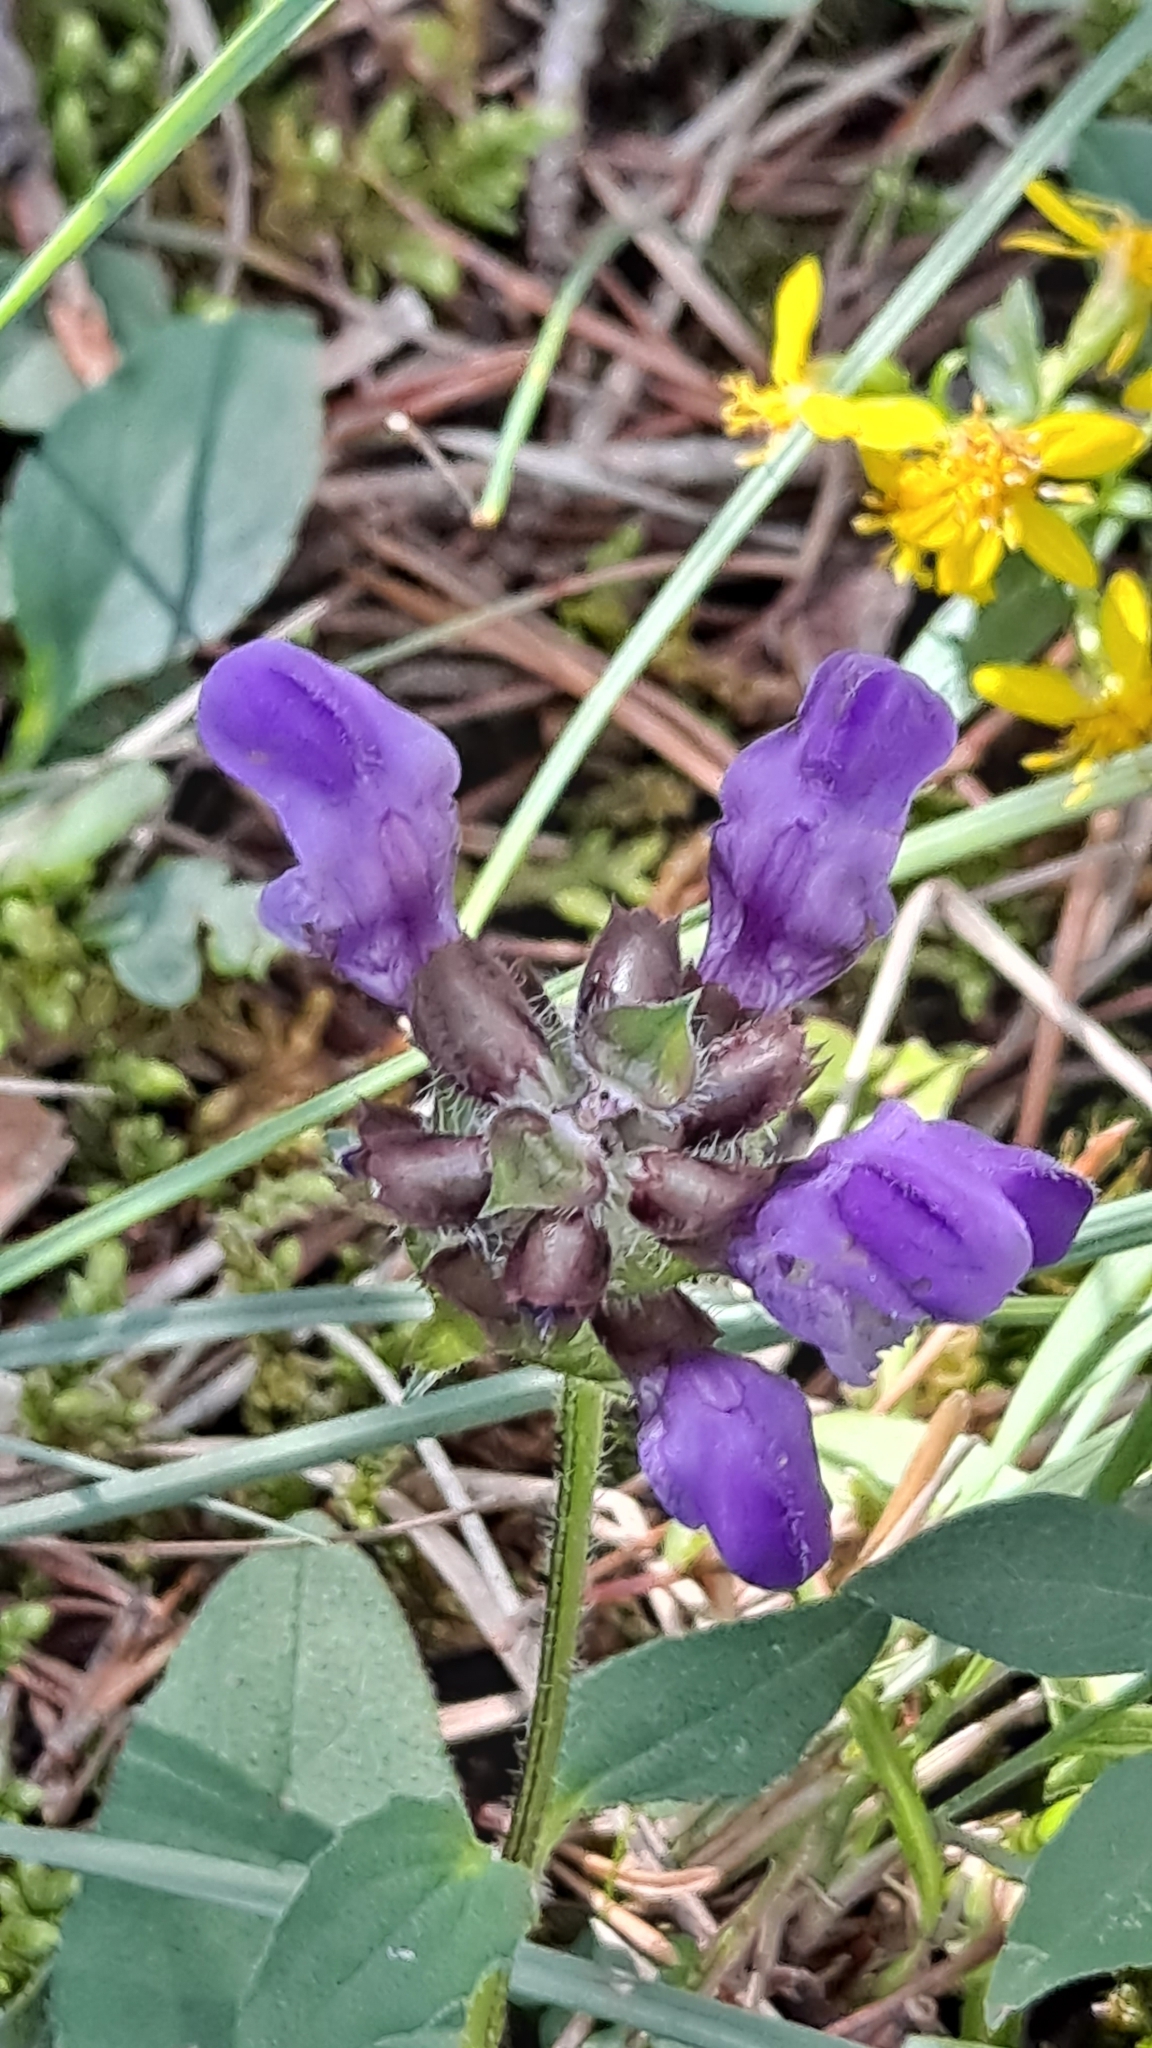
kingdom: Plantae
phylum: Tracheophyta
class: Magnoliopsida
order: Lamiales
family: Lamiaceae
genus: Prunella
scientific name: Prunella vulgaris
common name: Heal-all
